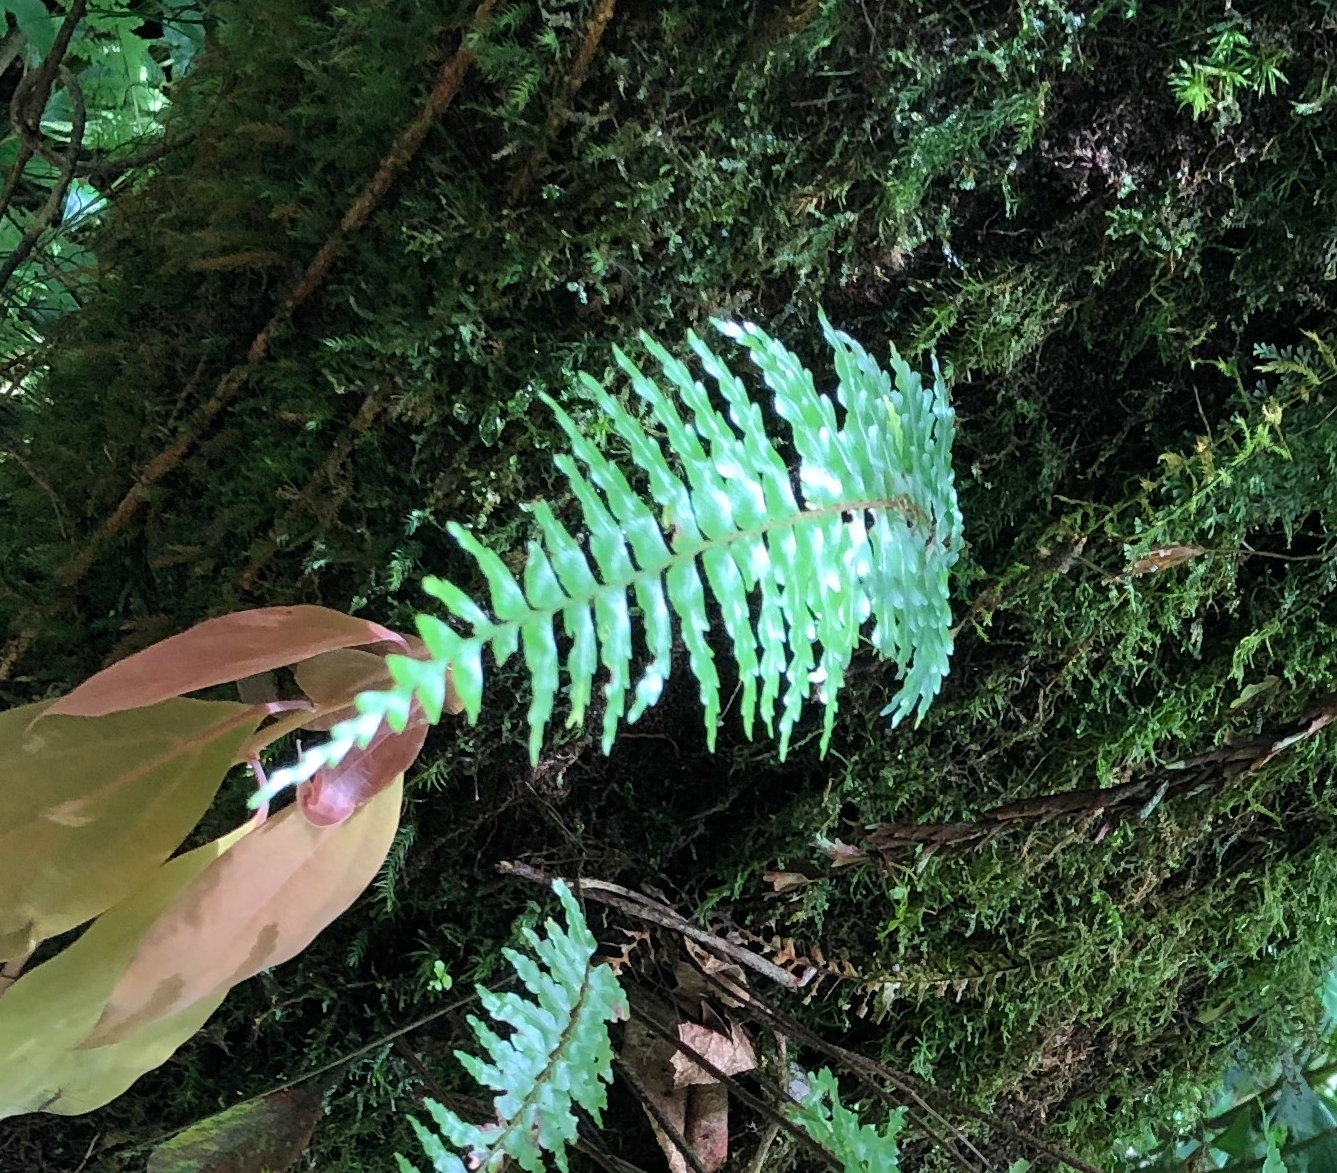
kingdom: Plantae
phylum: Tracheophyta
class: Polypodiopsida
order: Polypodiales
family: Aspleniaceae
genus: Asplenium
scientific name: Asplenium truncatum
